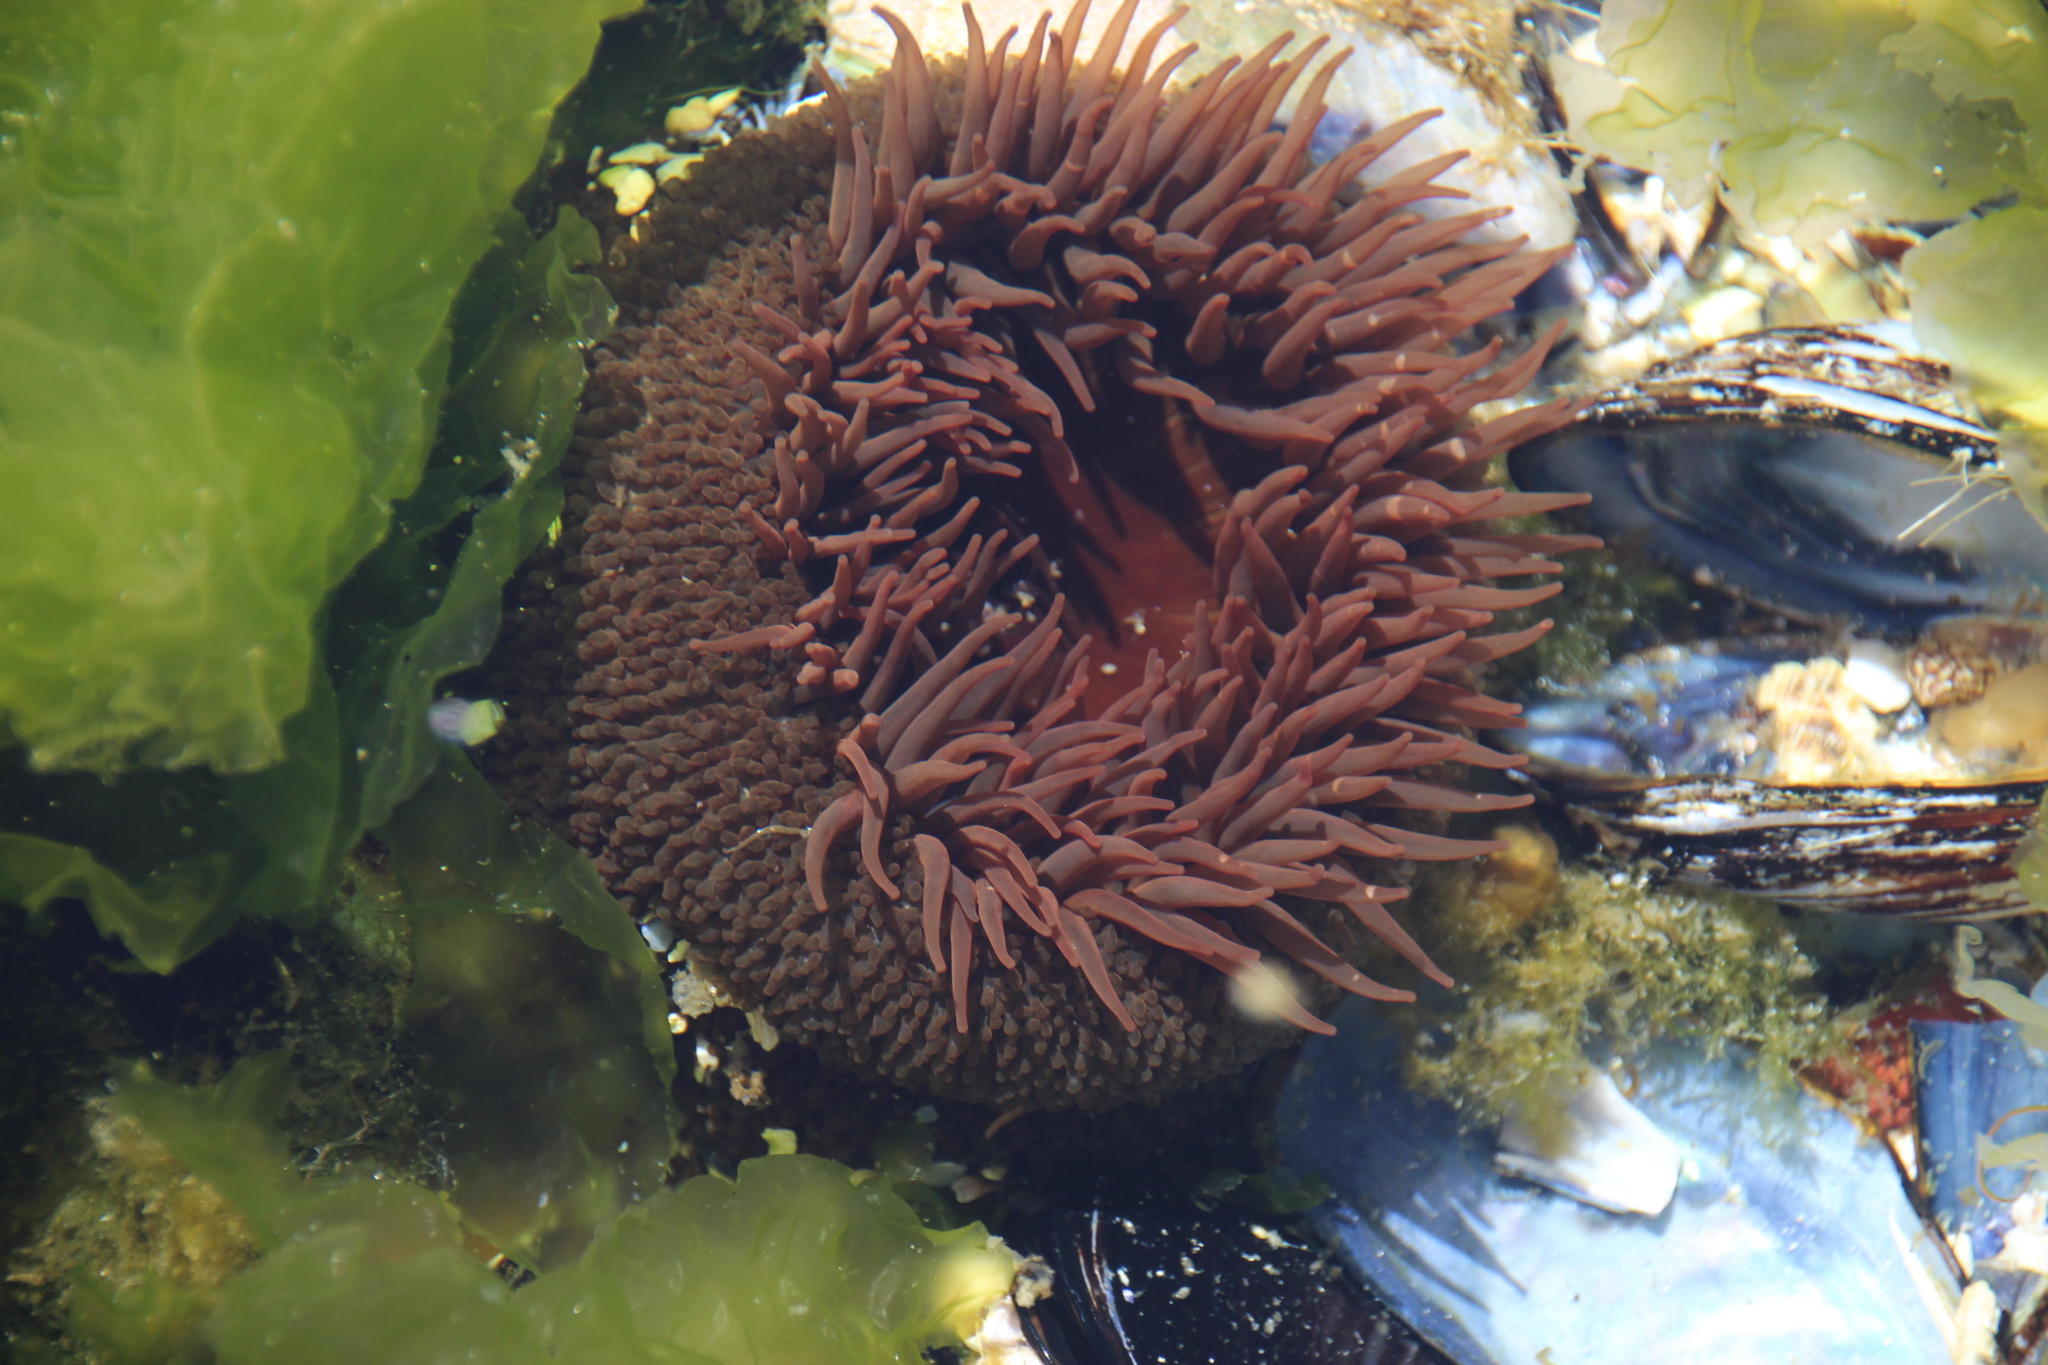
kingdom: Animalia
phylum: Cnidaria
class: Anthozoa
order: Actiniaria
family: Actiniidae
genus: Bunodactis
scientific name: Bunodactis reynaudi
